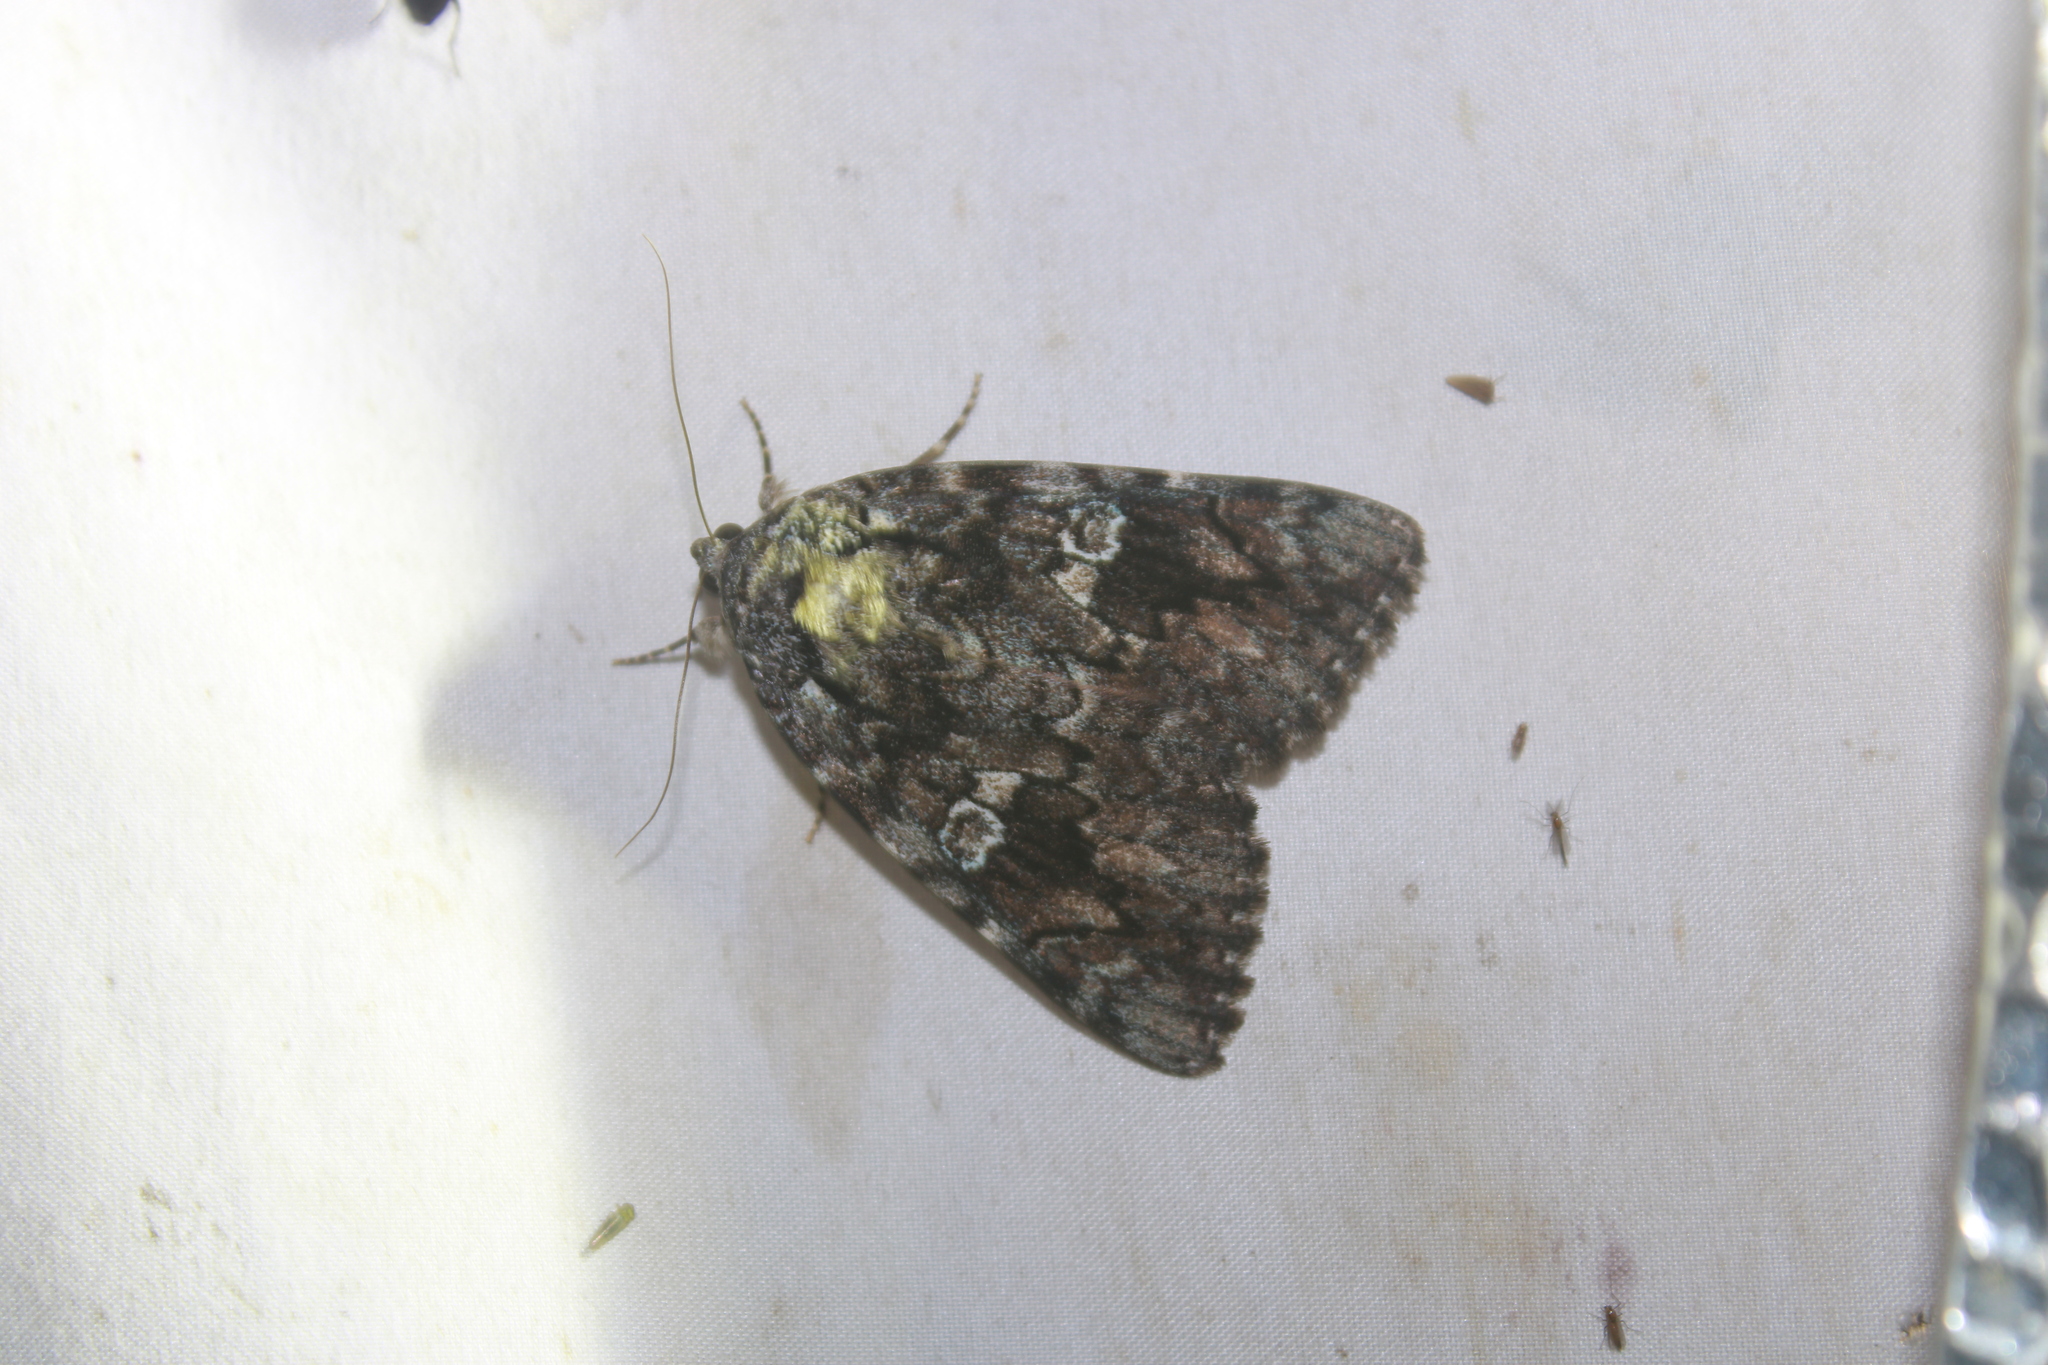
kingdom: Animalia
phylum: Arthropoda
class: Insecta
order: Lepidoptera
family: Erebidae
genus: Catocala
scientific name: Catocala ilia
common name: Ilia underwing
